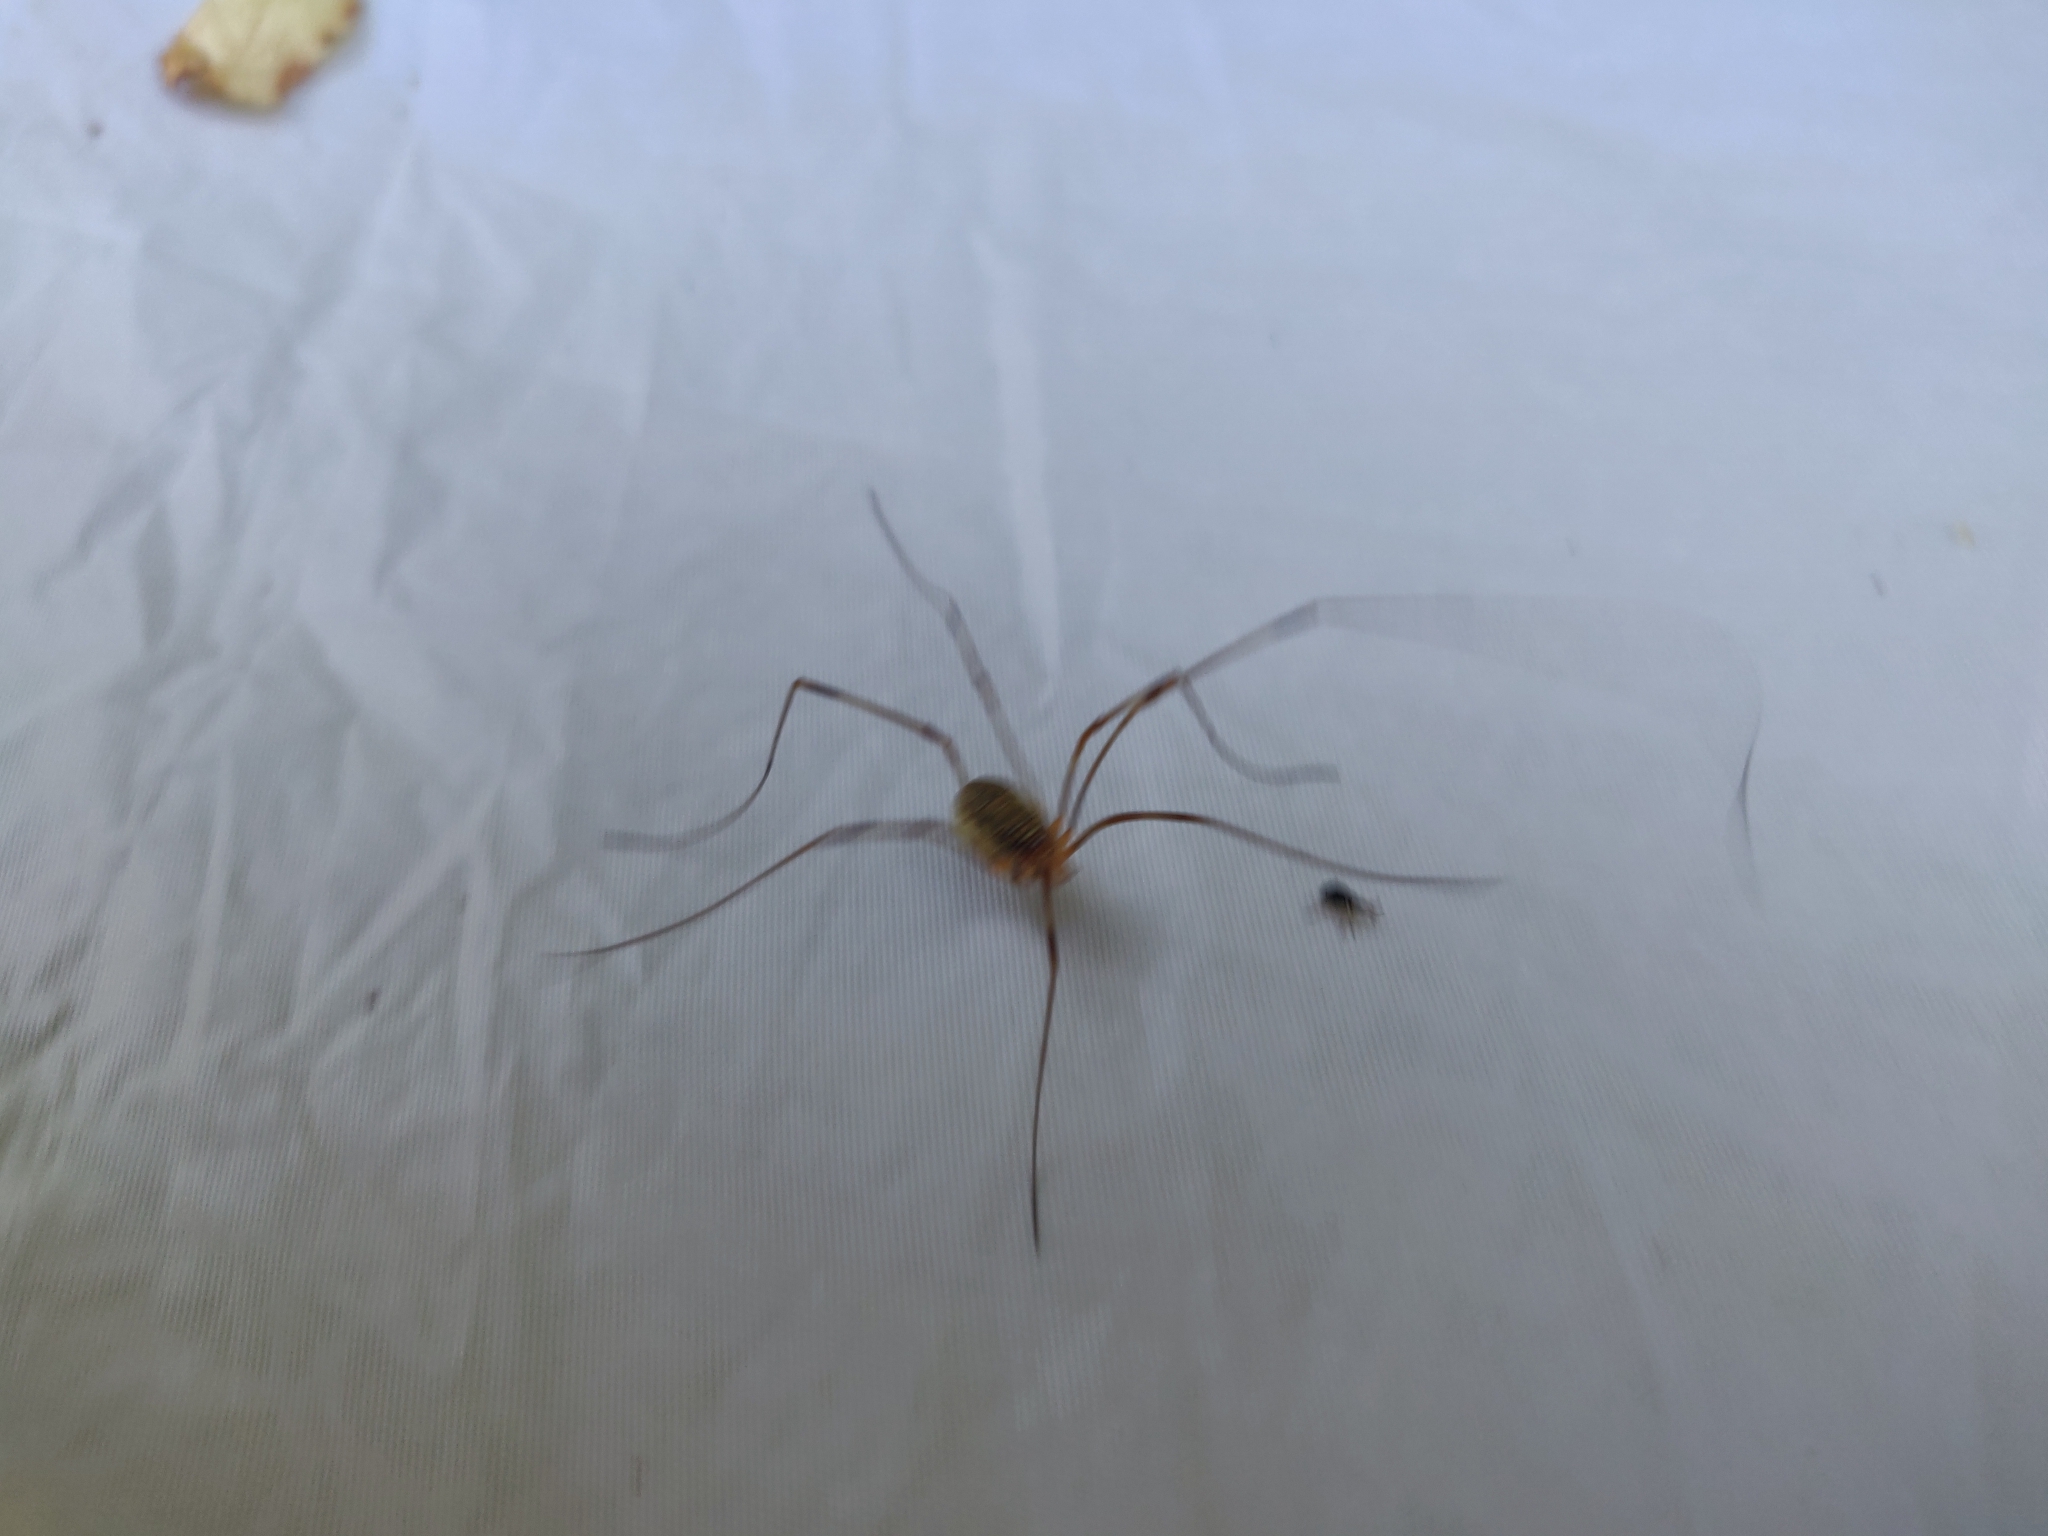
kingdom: Animalia
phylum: Arthropoda
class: Arachnida
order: Opiliones
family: Phalangiidae
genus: Opilio
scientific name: Opilio canestrinii
